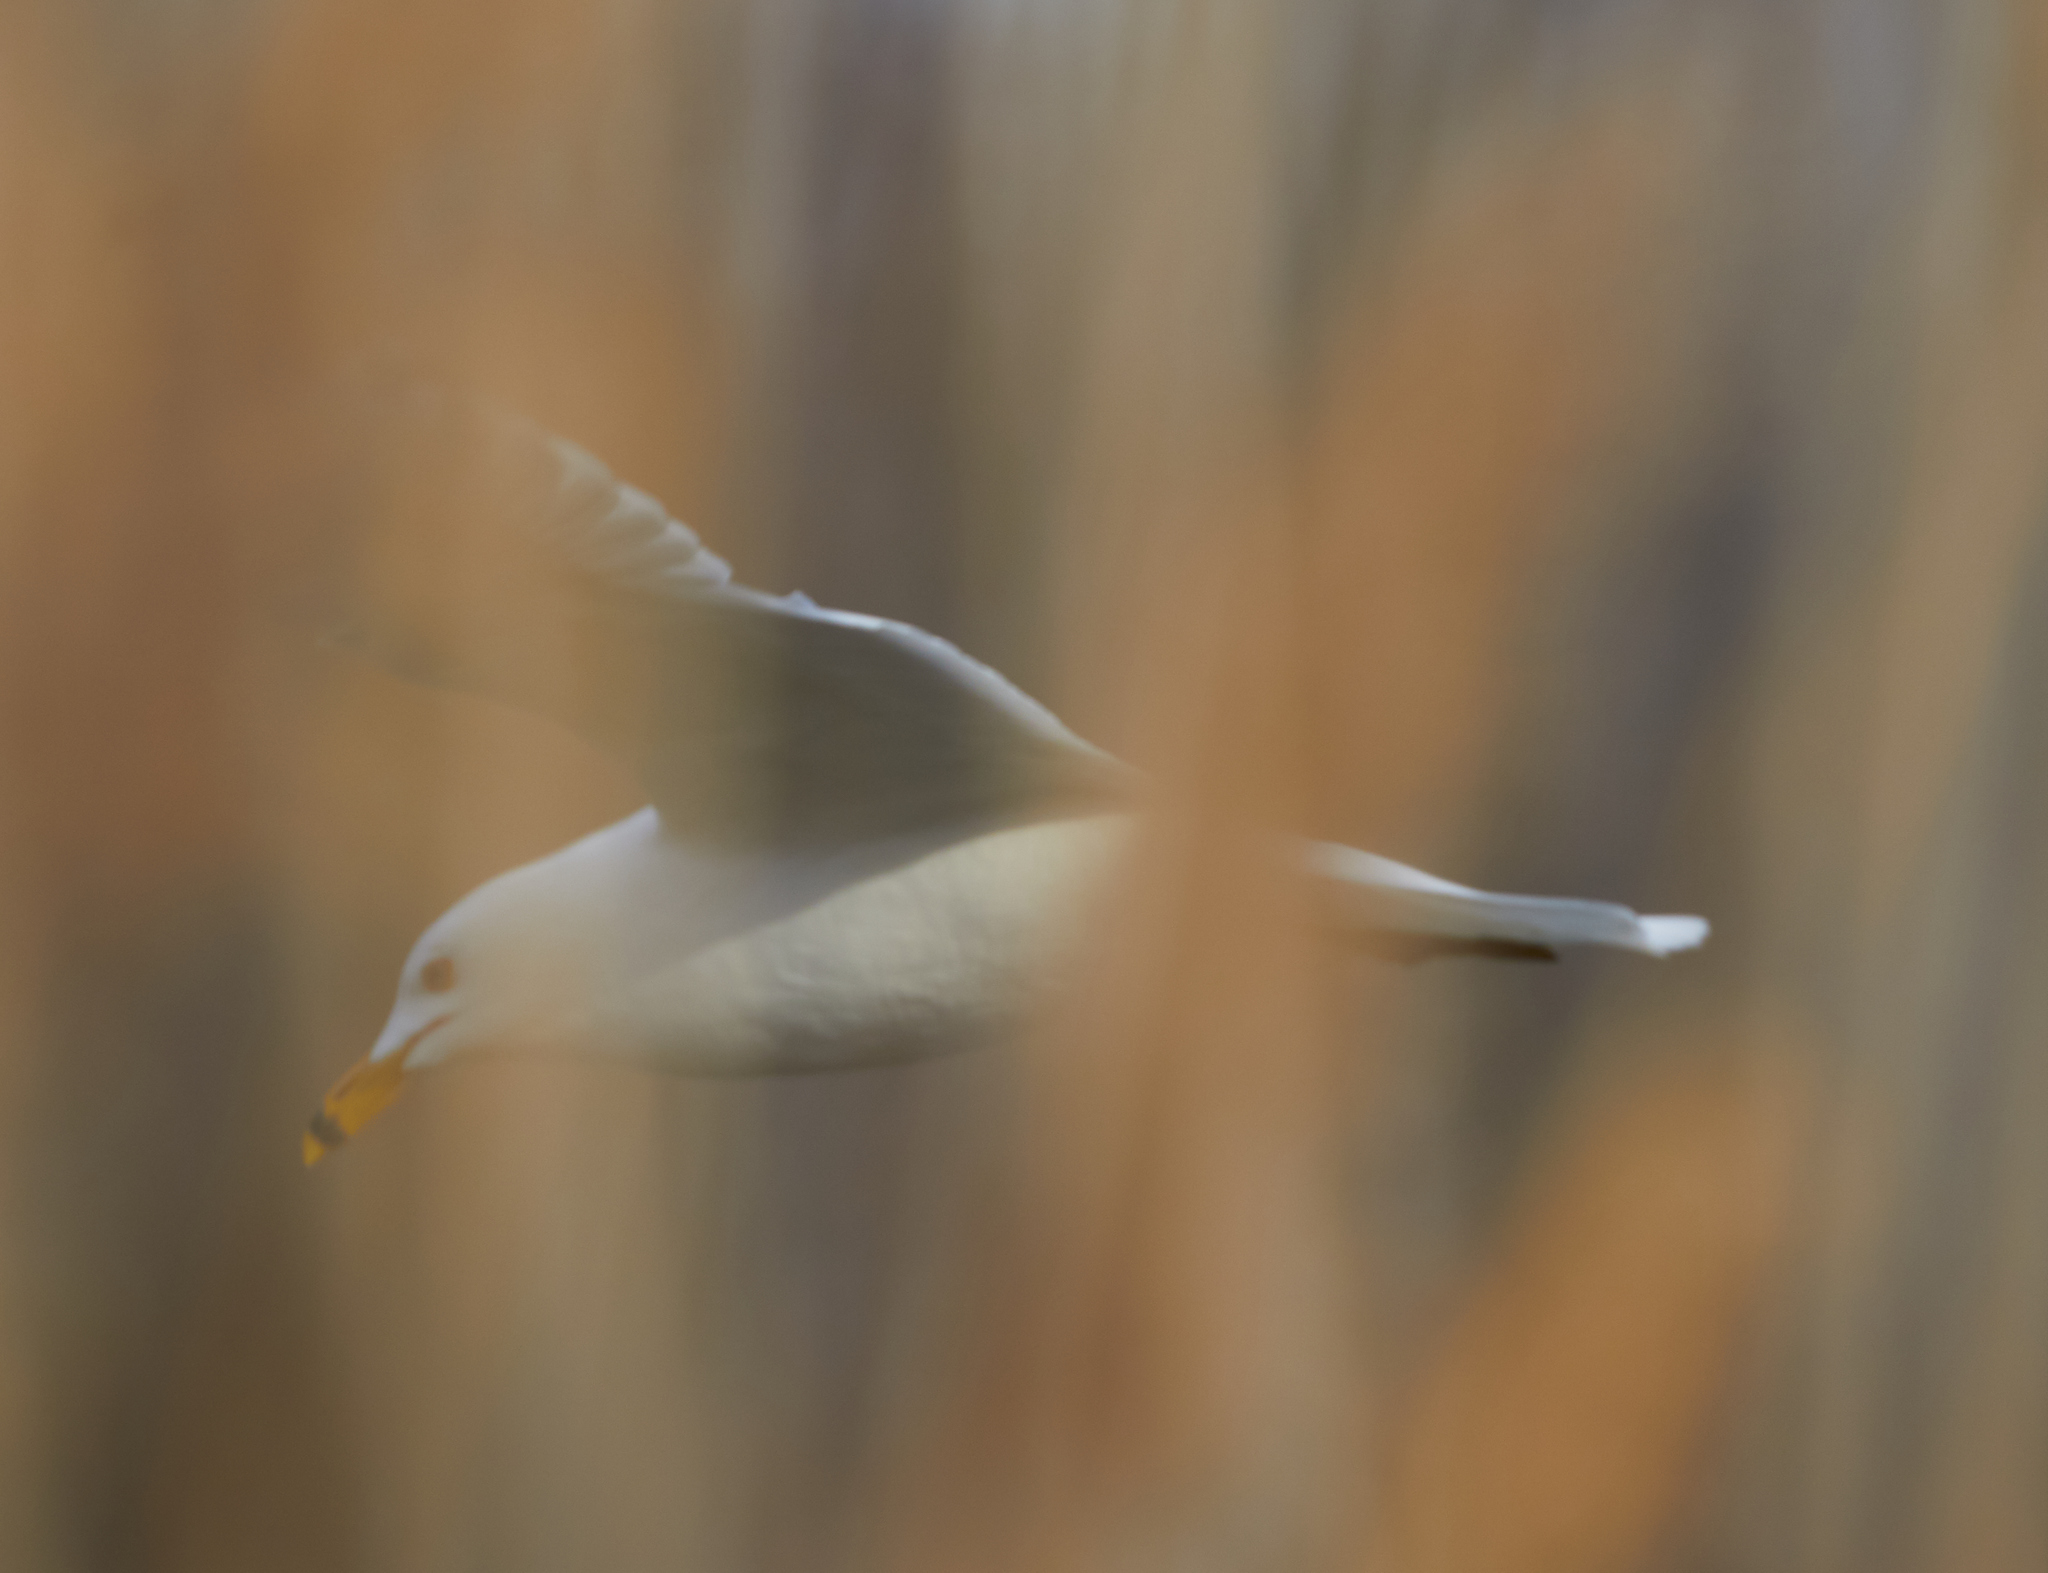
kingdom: Animalia
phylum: Chordata
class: Aves
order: Charadriiformes
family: Laridae
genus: Larus
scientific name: Larus delawarensis
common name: Ring-billed gull
